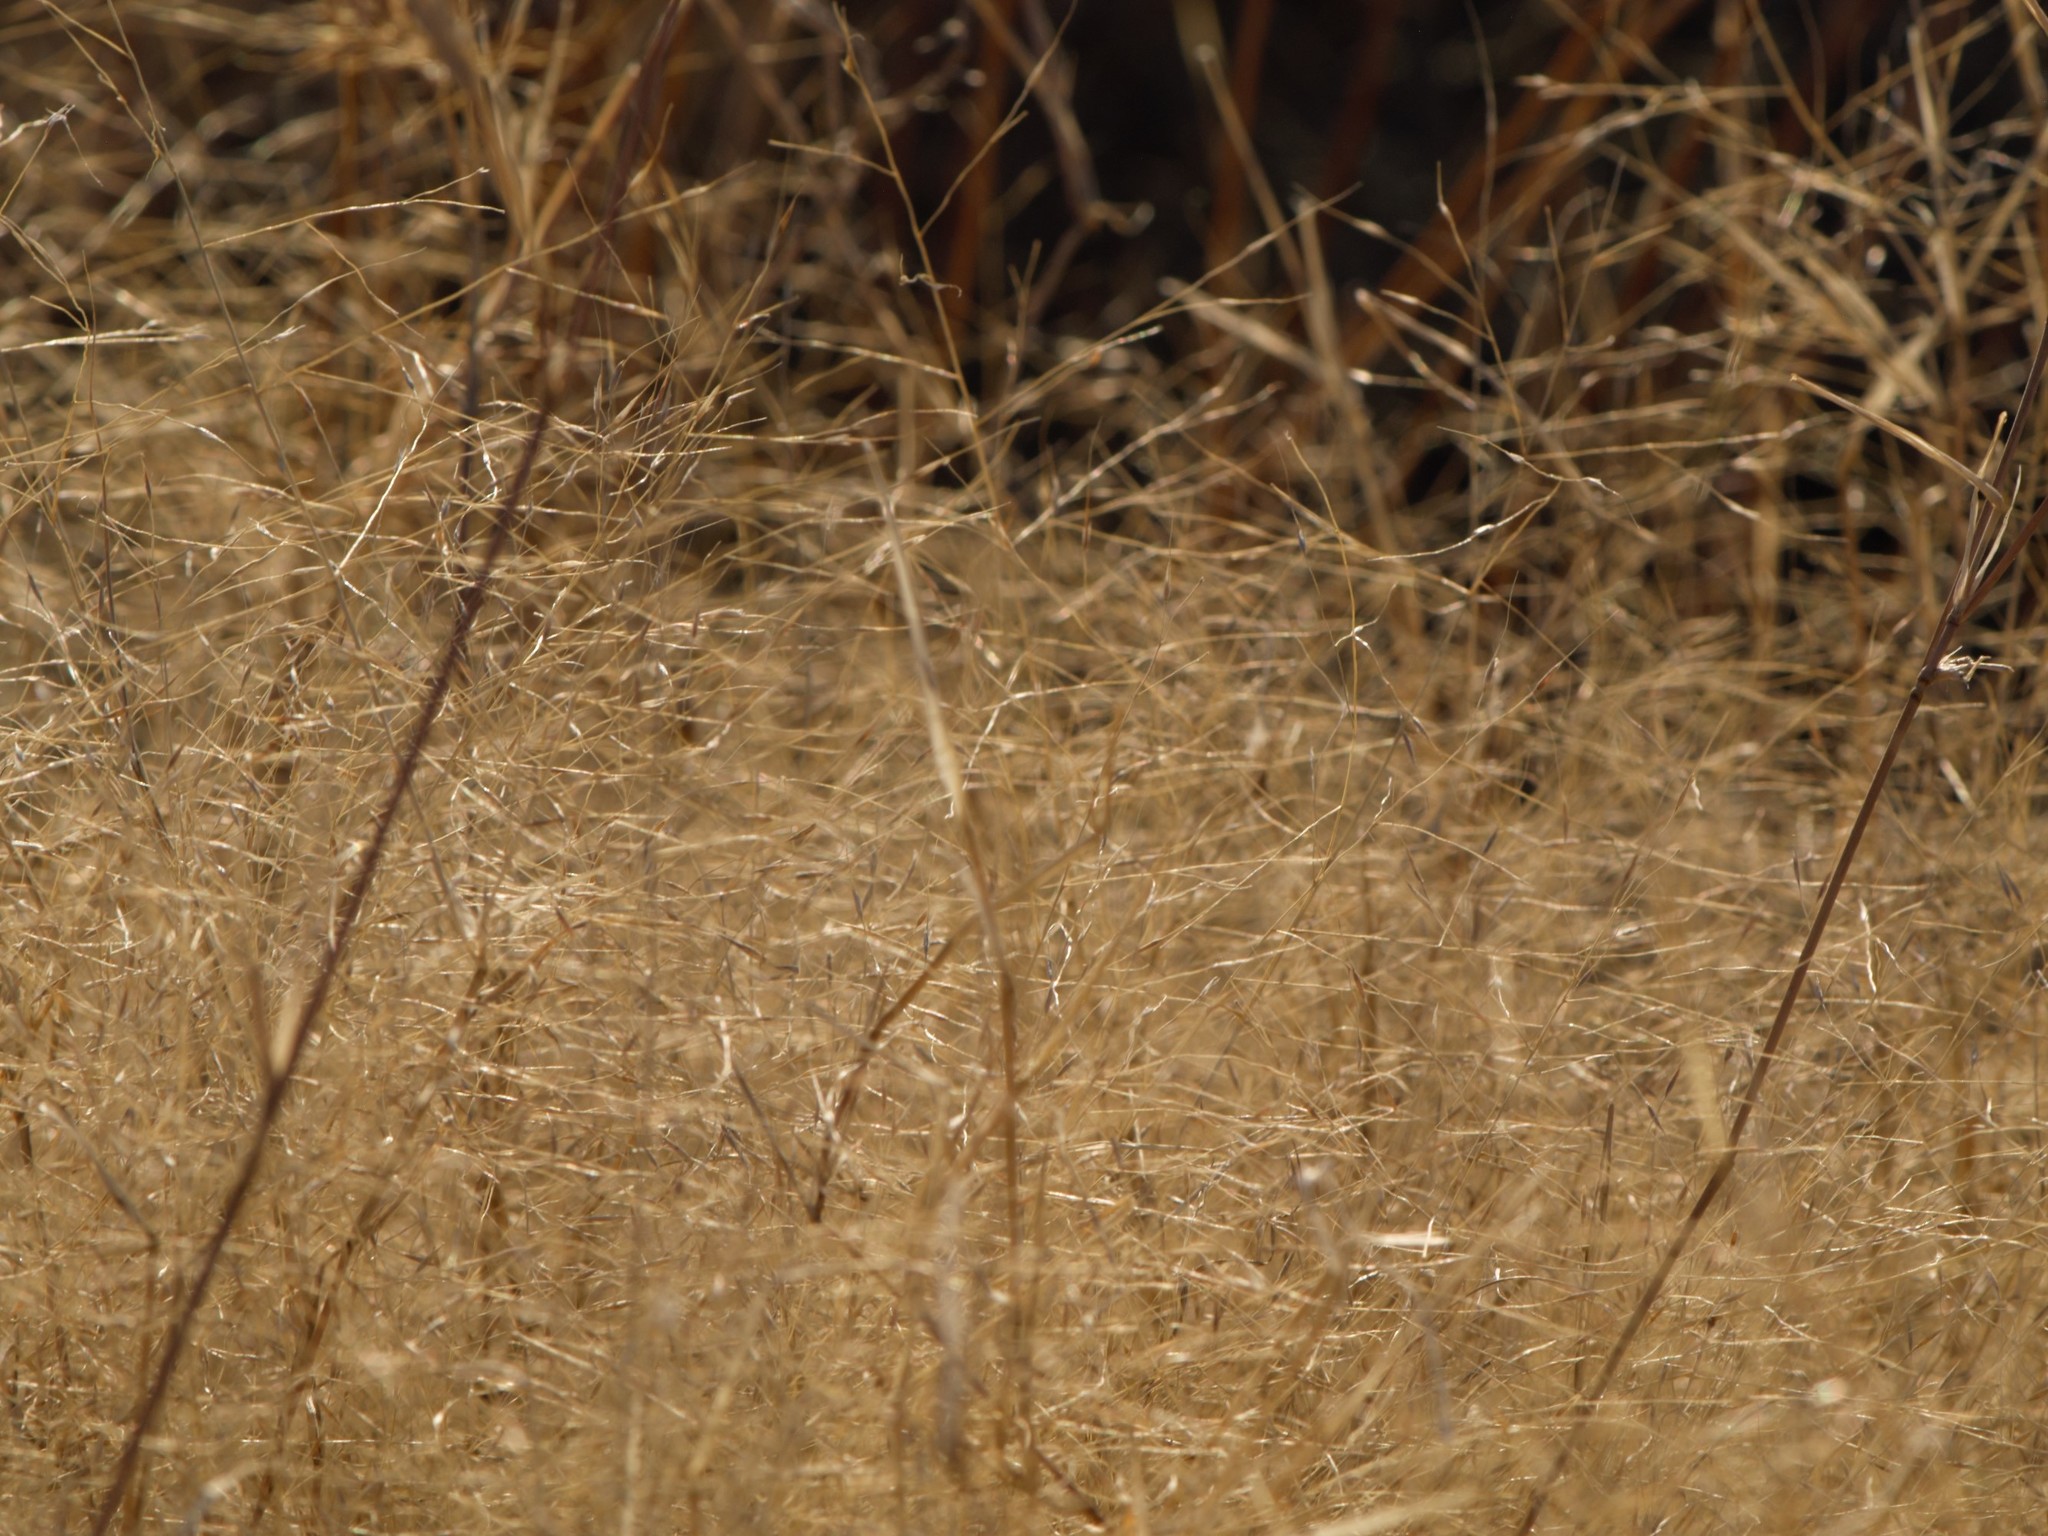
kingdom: Plantae
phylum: Tracheophyta
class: Liliopsida
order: Poales
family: Poaceae
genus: Muhlenbergia
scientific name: Muhlenbergia porteri
